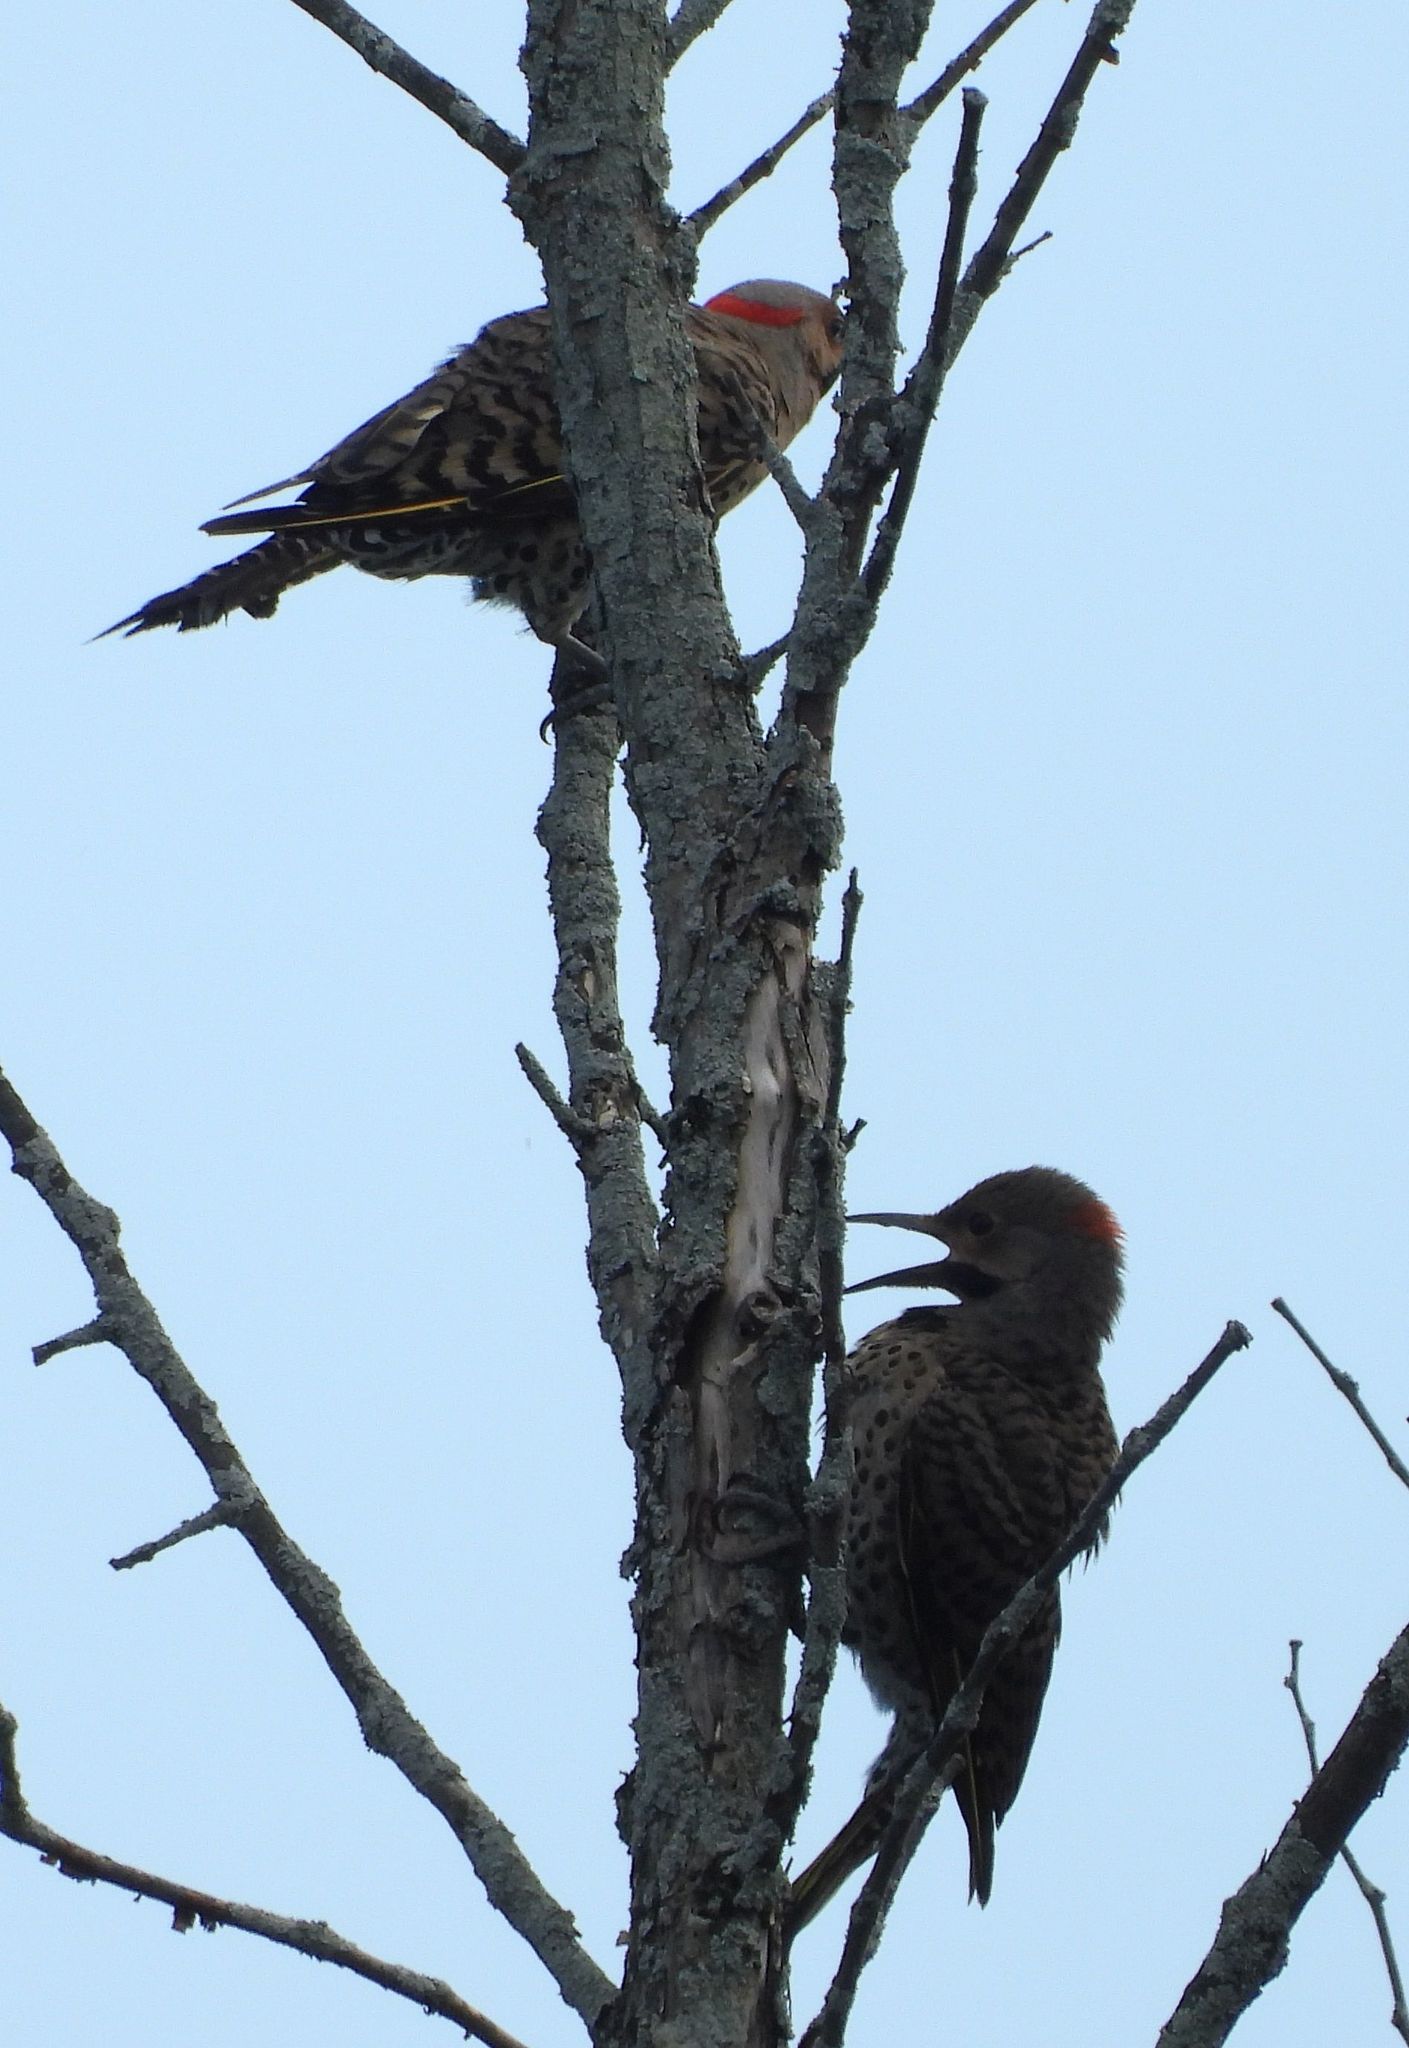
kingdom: Animalia
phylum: Chordata
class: Aves
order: Piciformes
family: Picidae
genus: Colaptes
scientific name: Colaptes auratus
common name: Northern flicker
